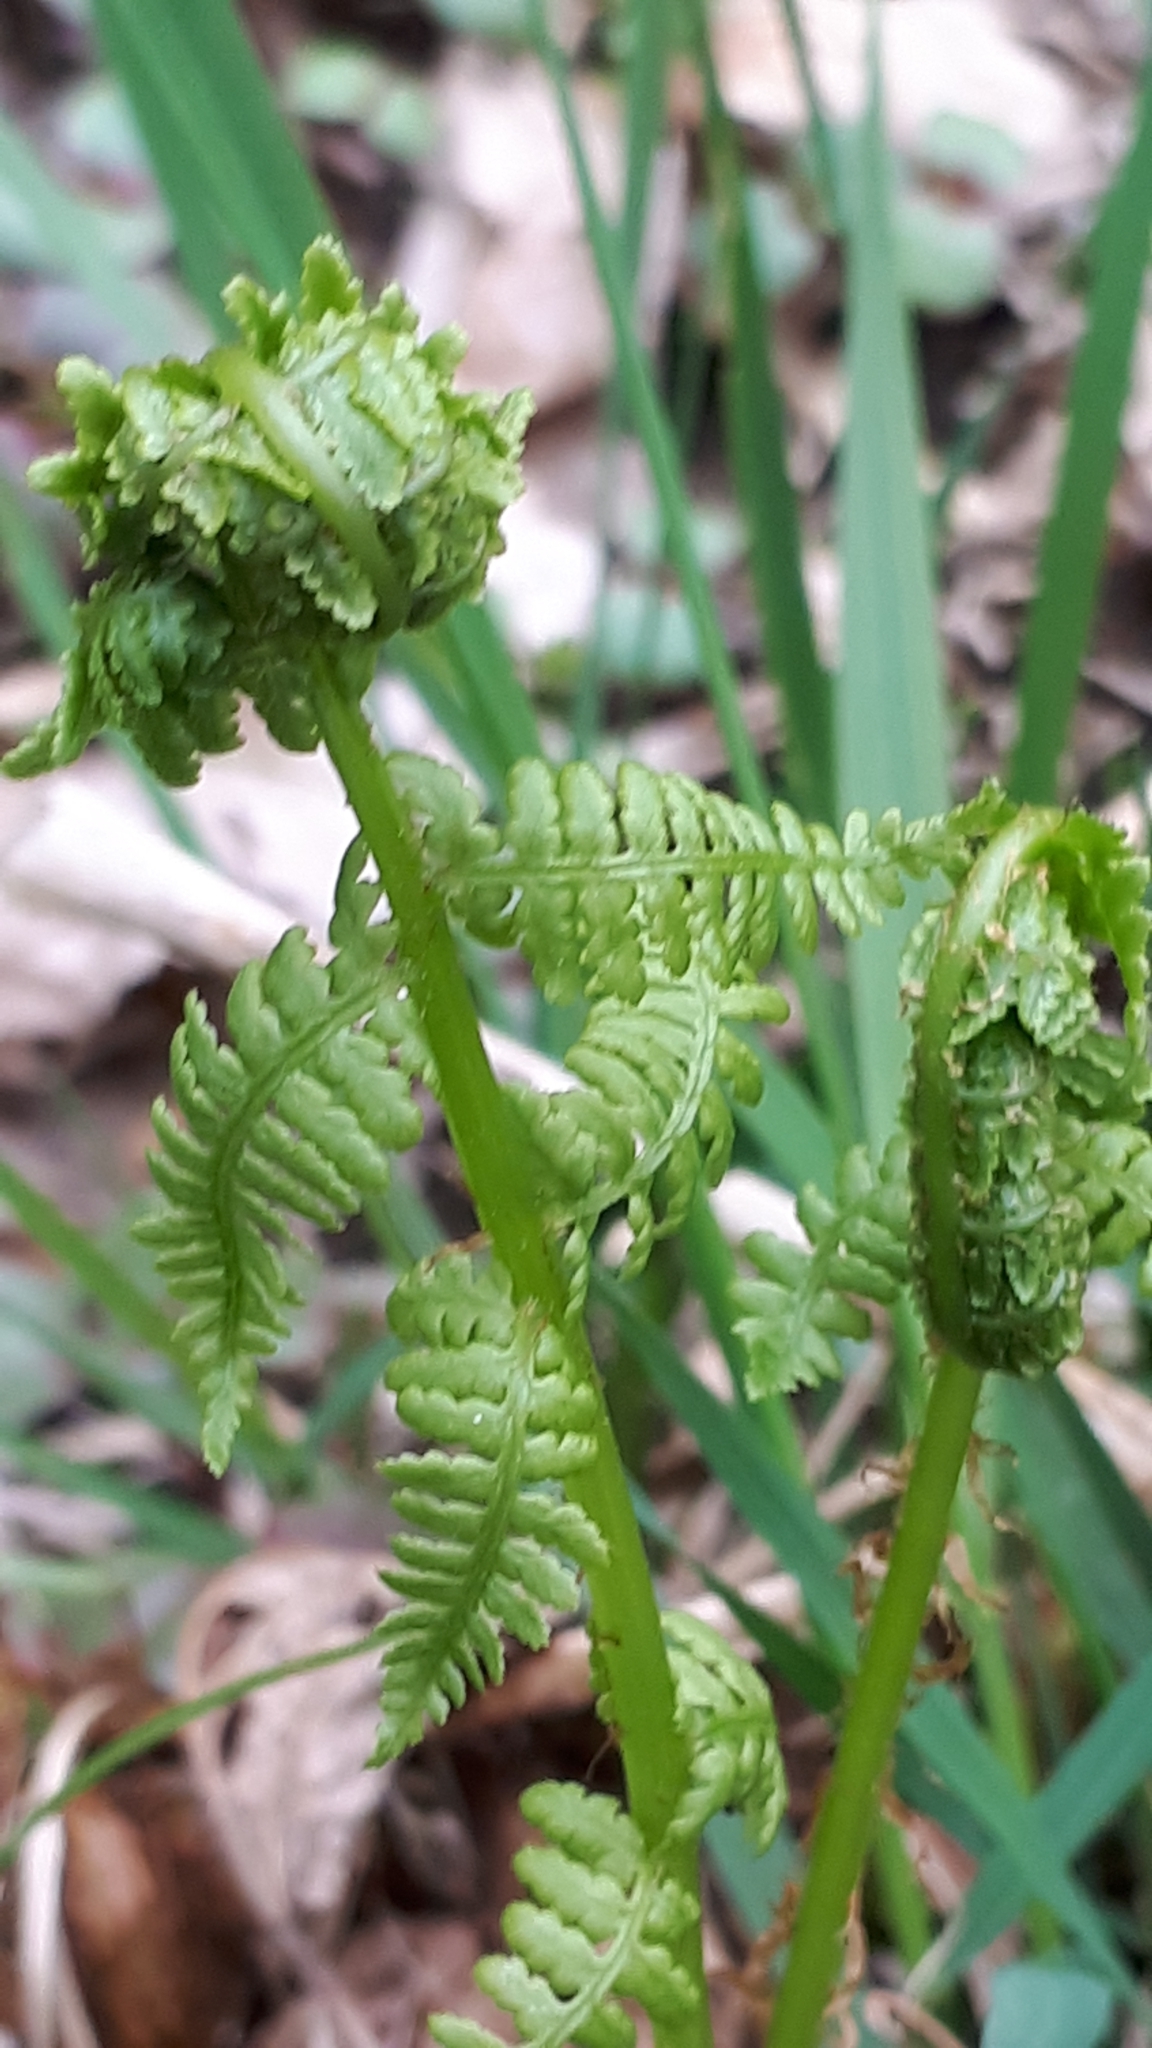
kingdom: Plantae
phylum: Tracheophyta
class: Polypodiopsida
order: Polypodiales
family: Dryopteridaceae
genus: Dryopteris
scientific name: Dryopteris filix-mas
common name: Male fern
